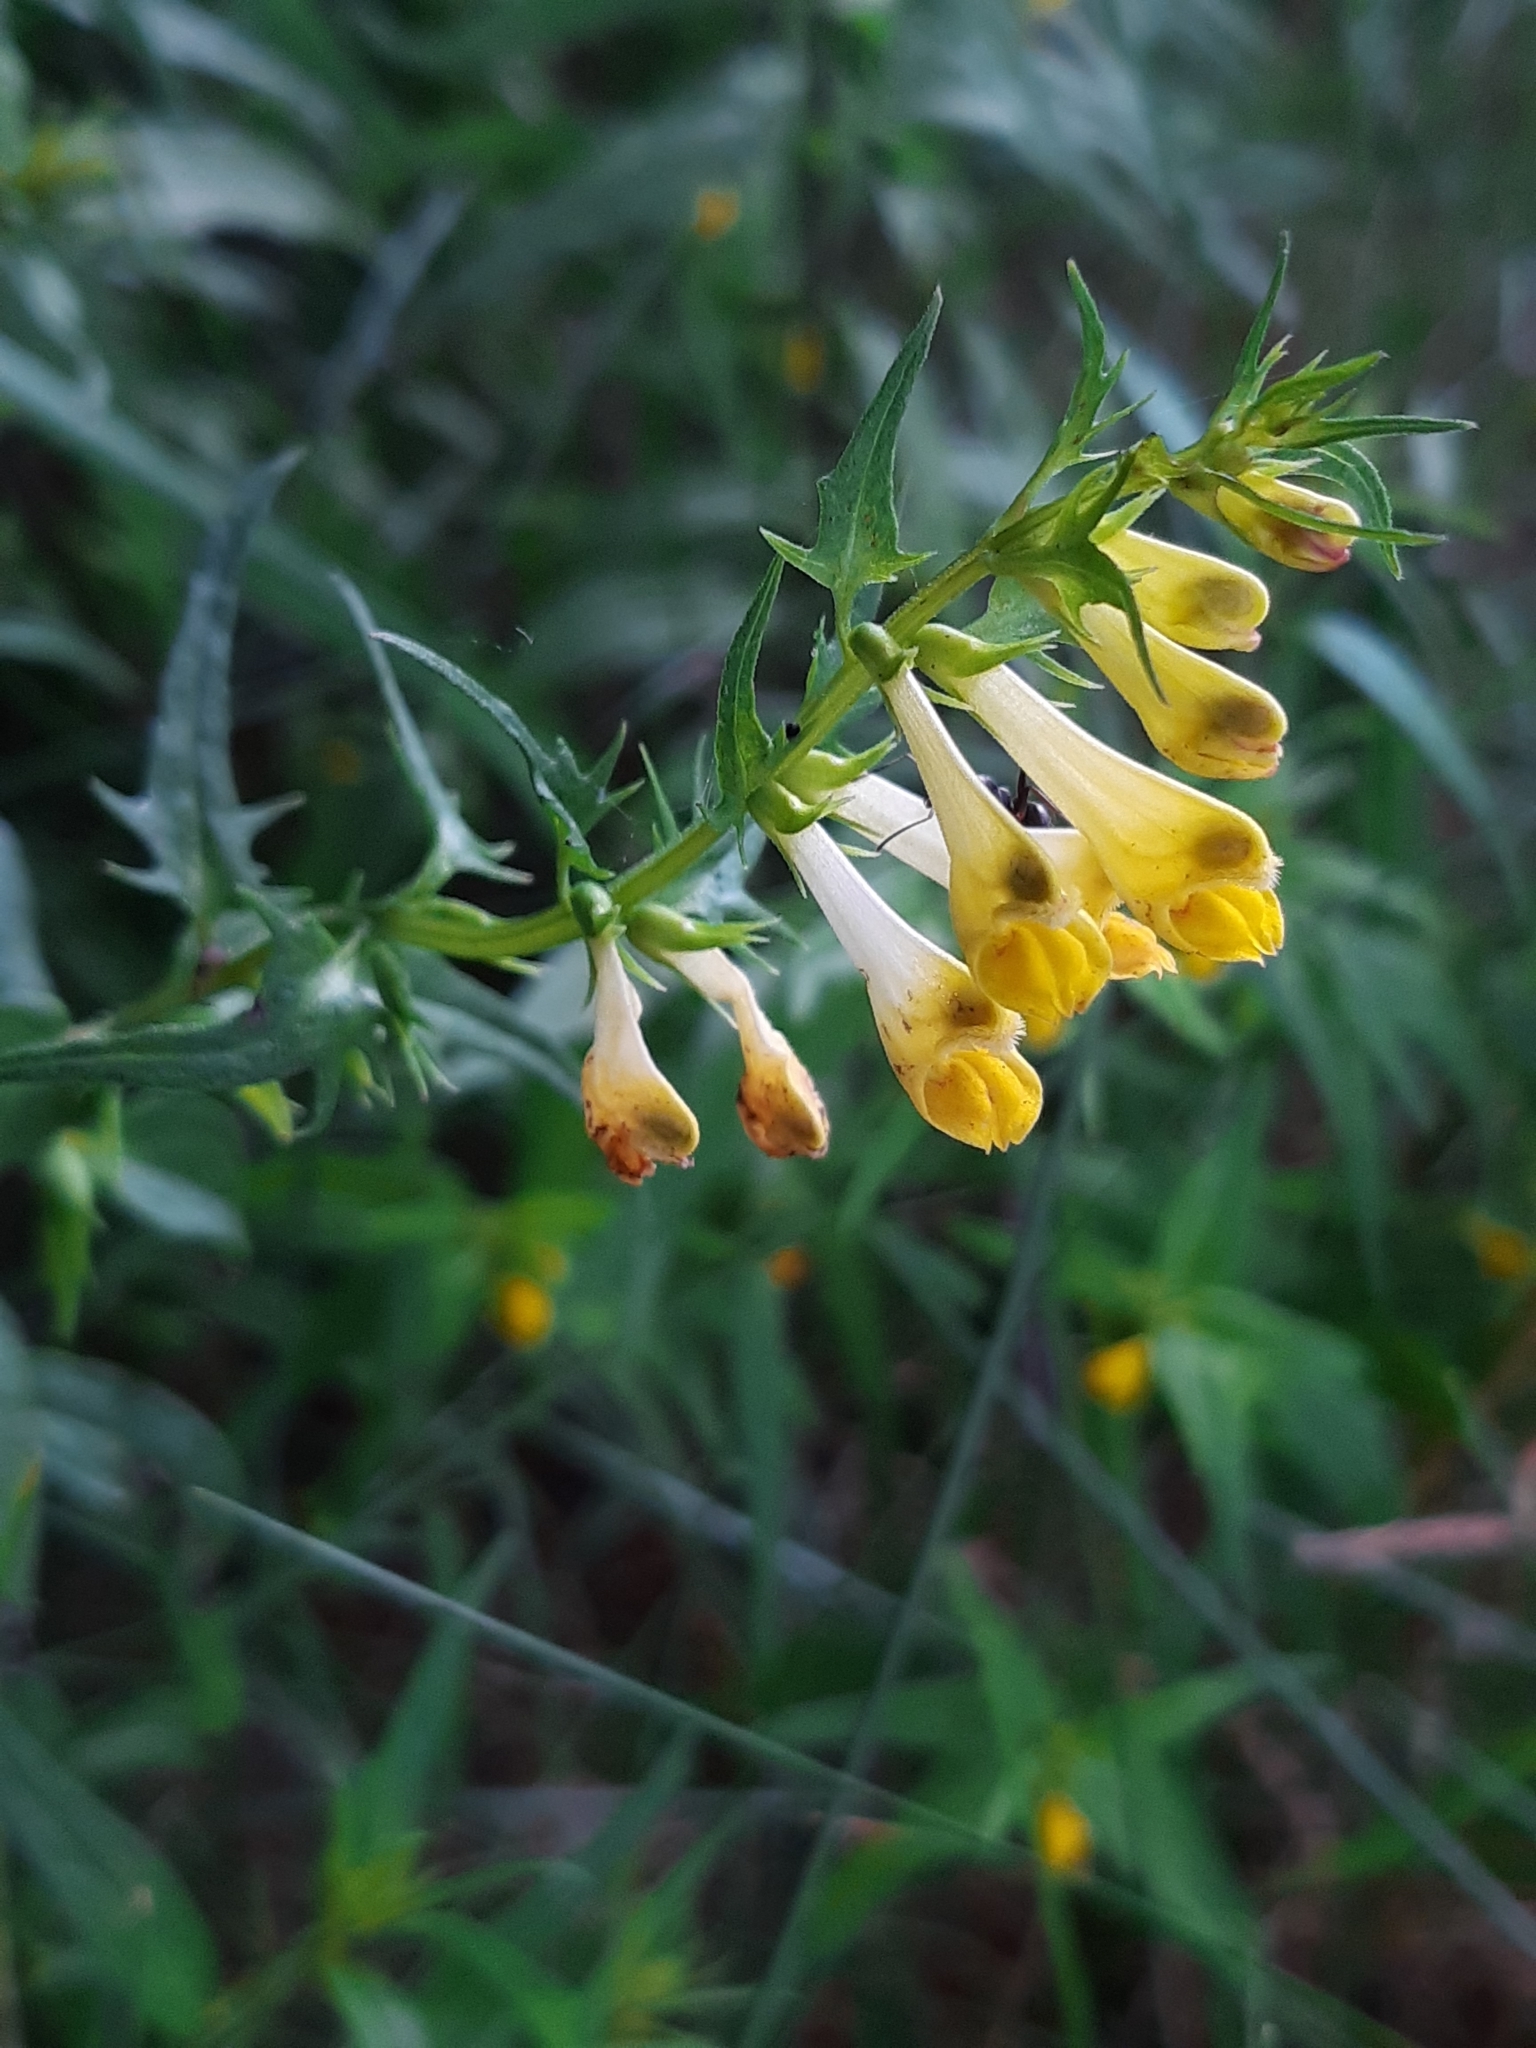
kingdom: Plantae
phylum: Tracheophyta
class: Magnoliopsida
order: Lamiales
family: Orobanchaceae
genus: Melampyrum
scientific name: Melampyrum pratense
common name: Common cow-wheat
